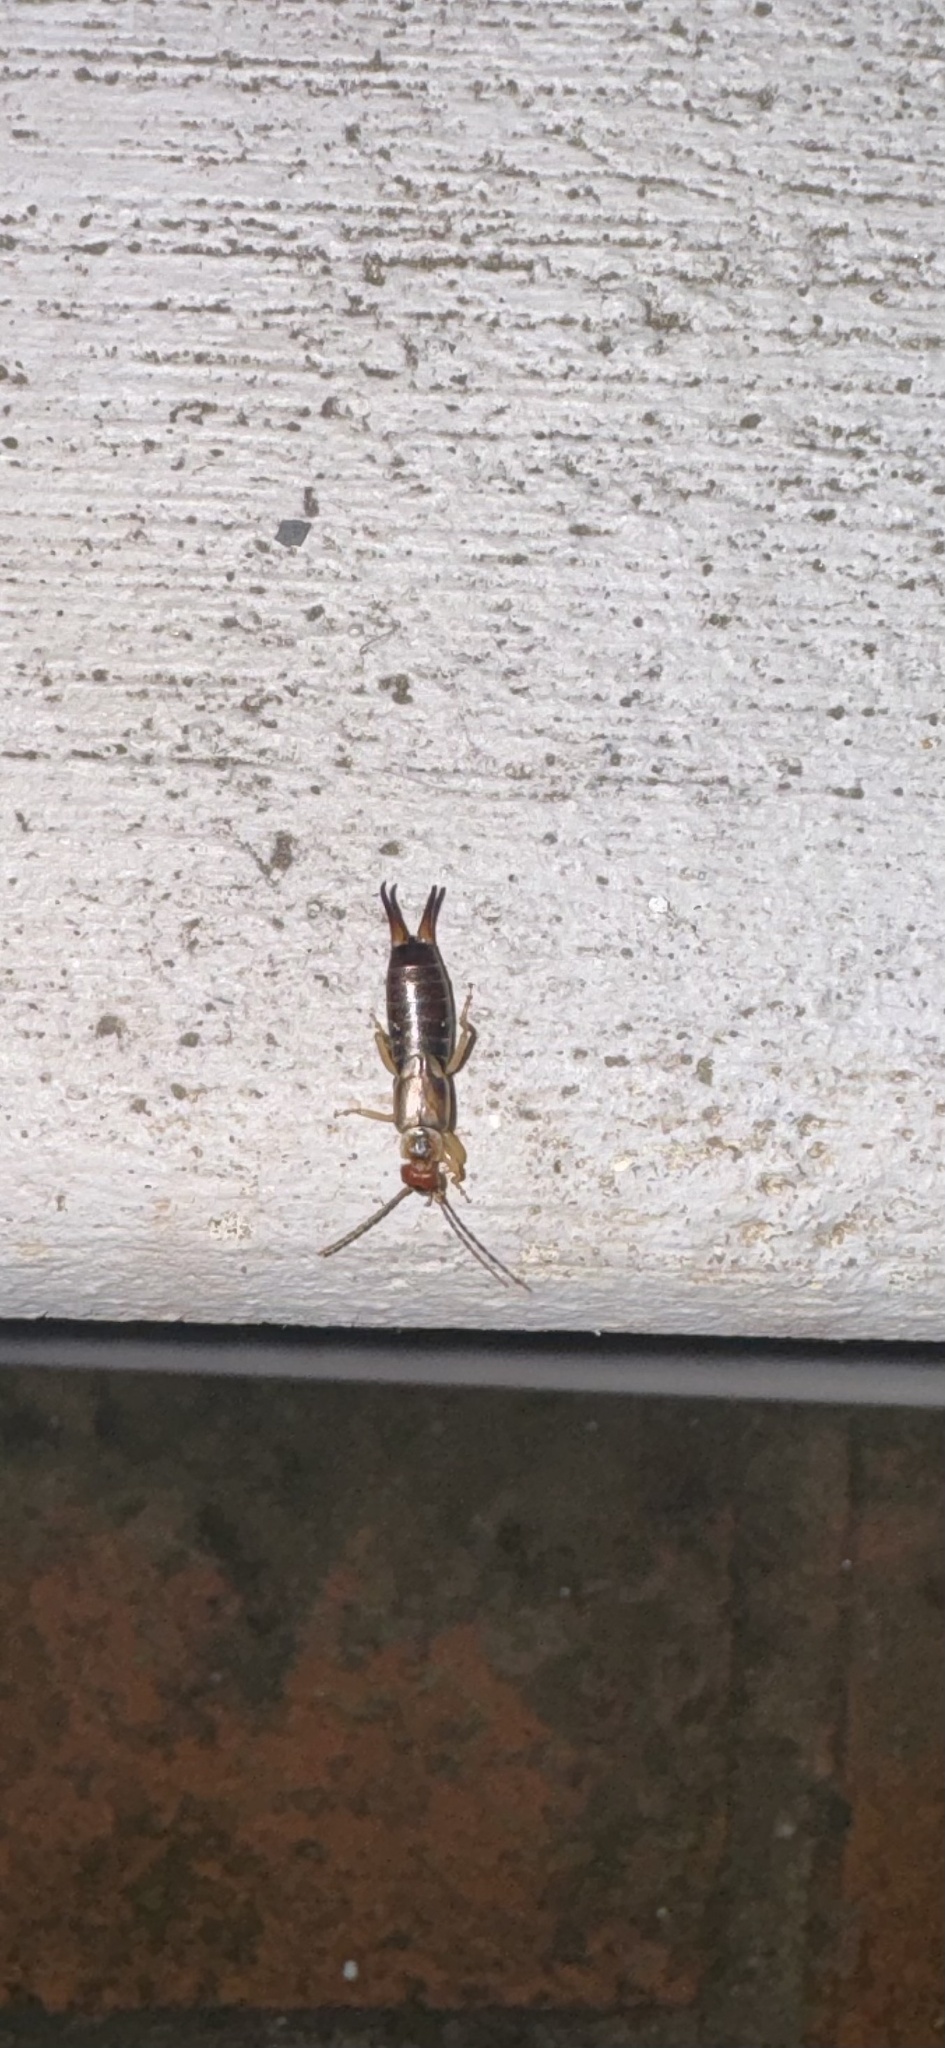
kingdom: Animalia
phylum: Arthropoda
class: Insecta
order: Dermaptera
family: Forficulidae
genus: Forficula
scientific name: Forficula dentata
